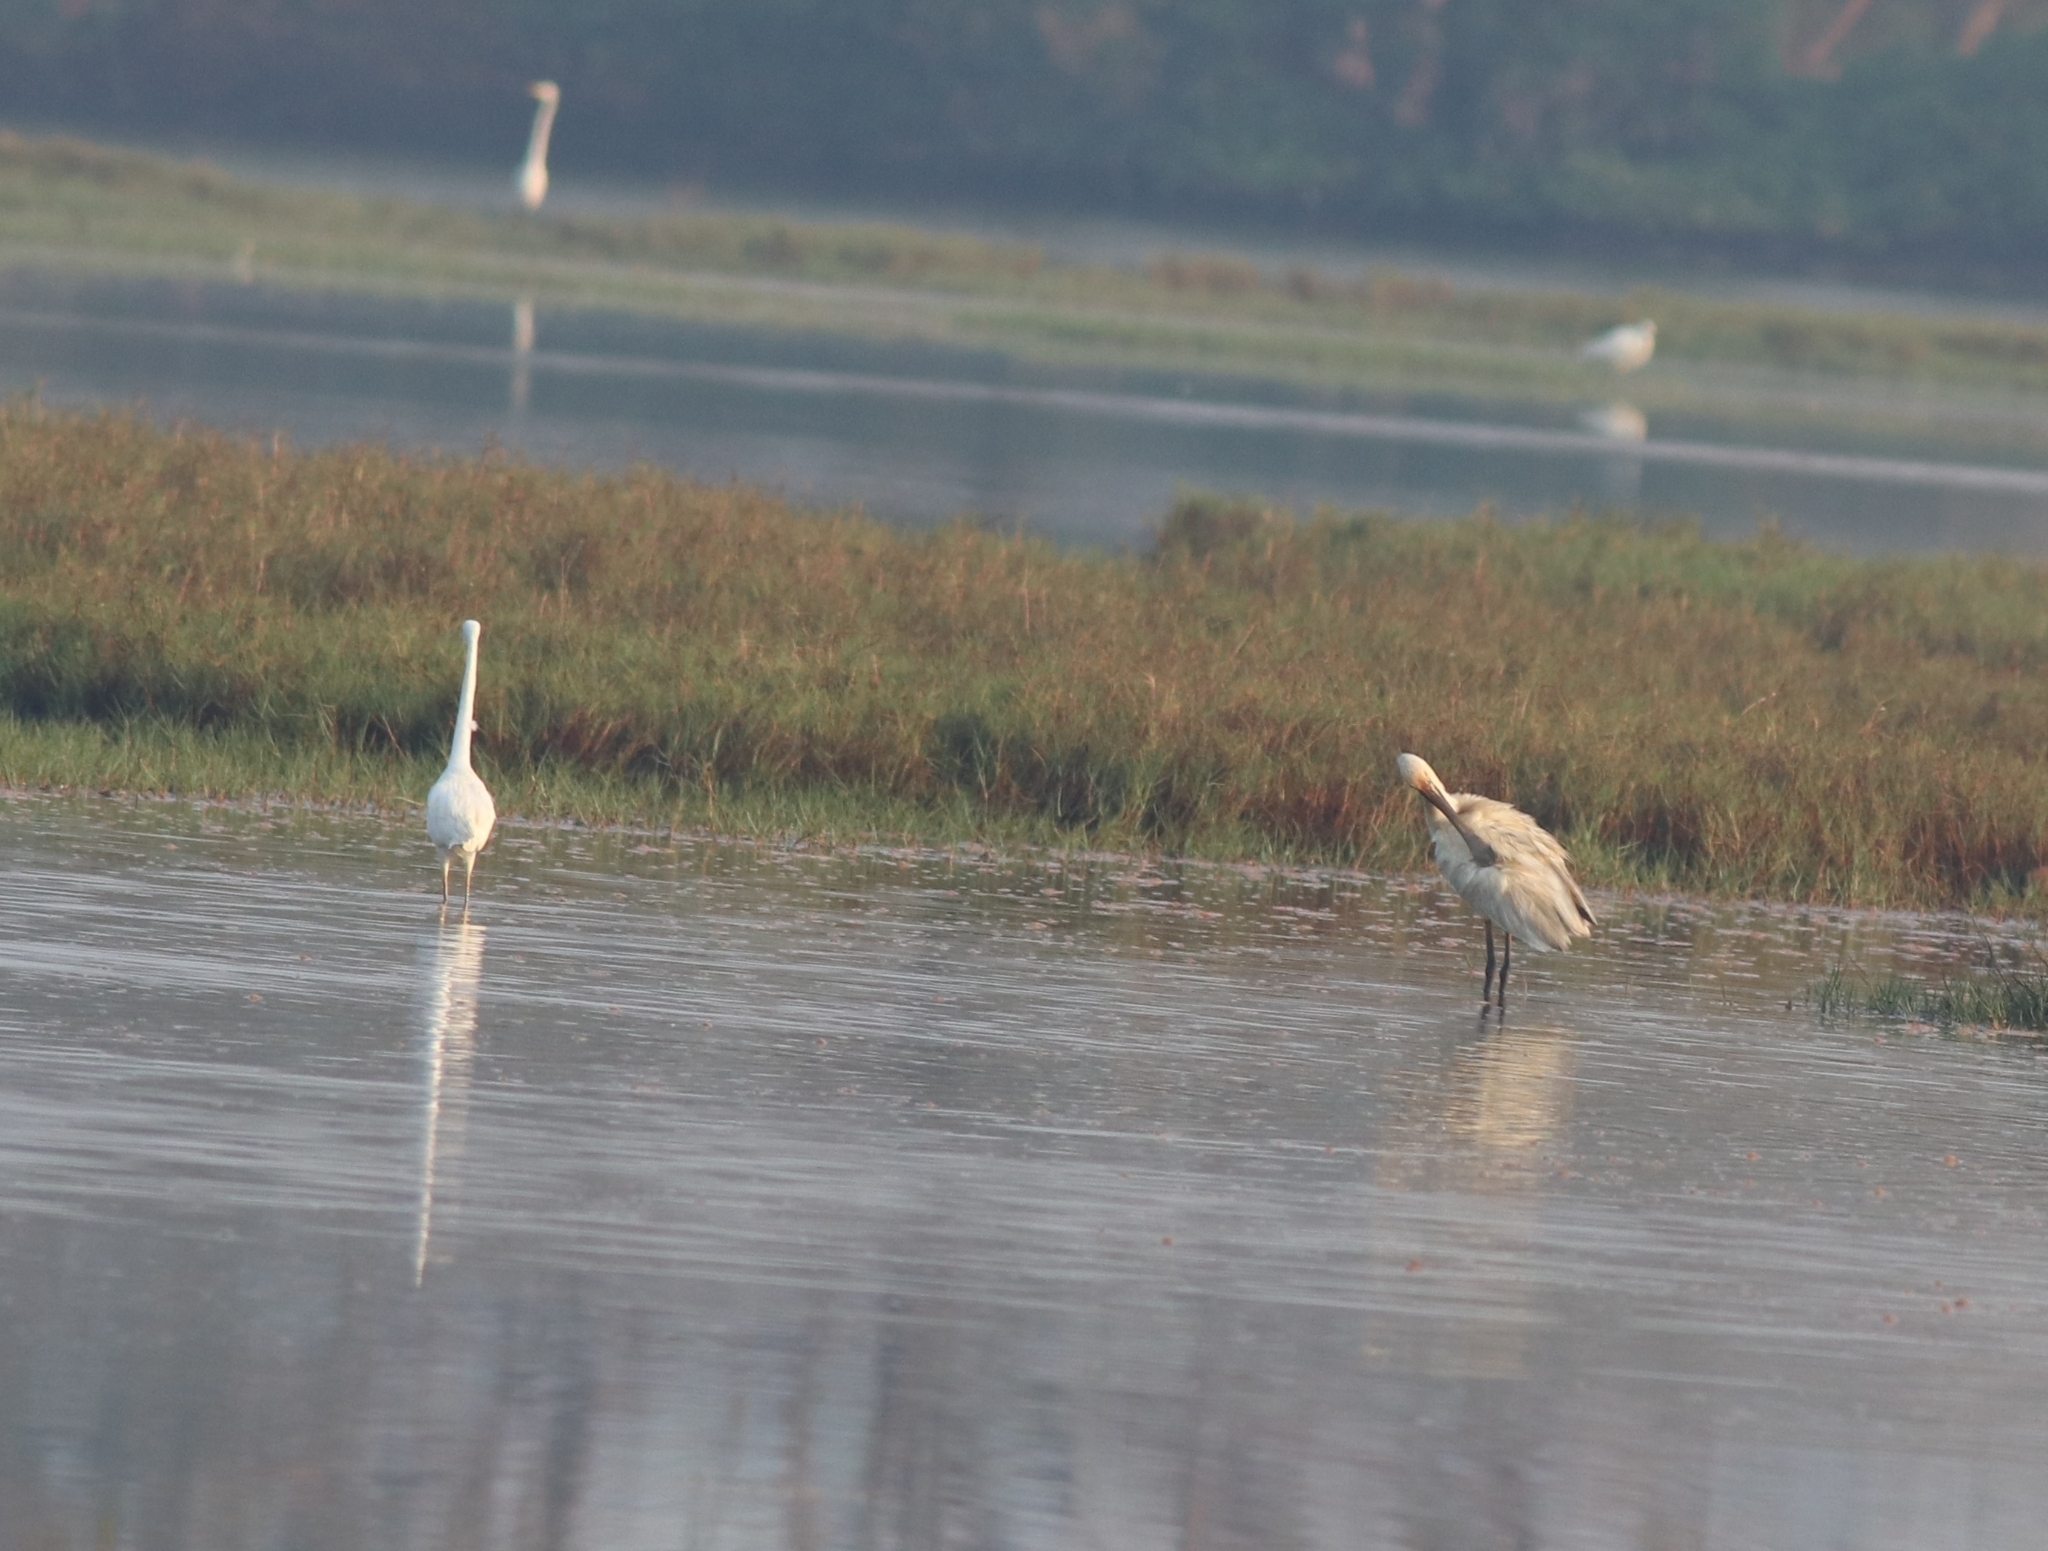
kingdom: Animalia
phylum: Chordata
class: Aves
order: Pelecaniformes
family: Threskiornithidae
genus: Platalea
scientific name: Platalea leucorodia
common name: Eurasian spoonbill
